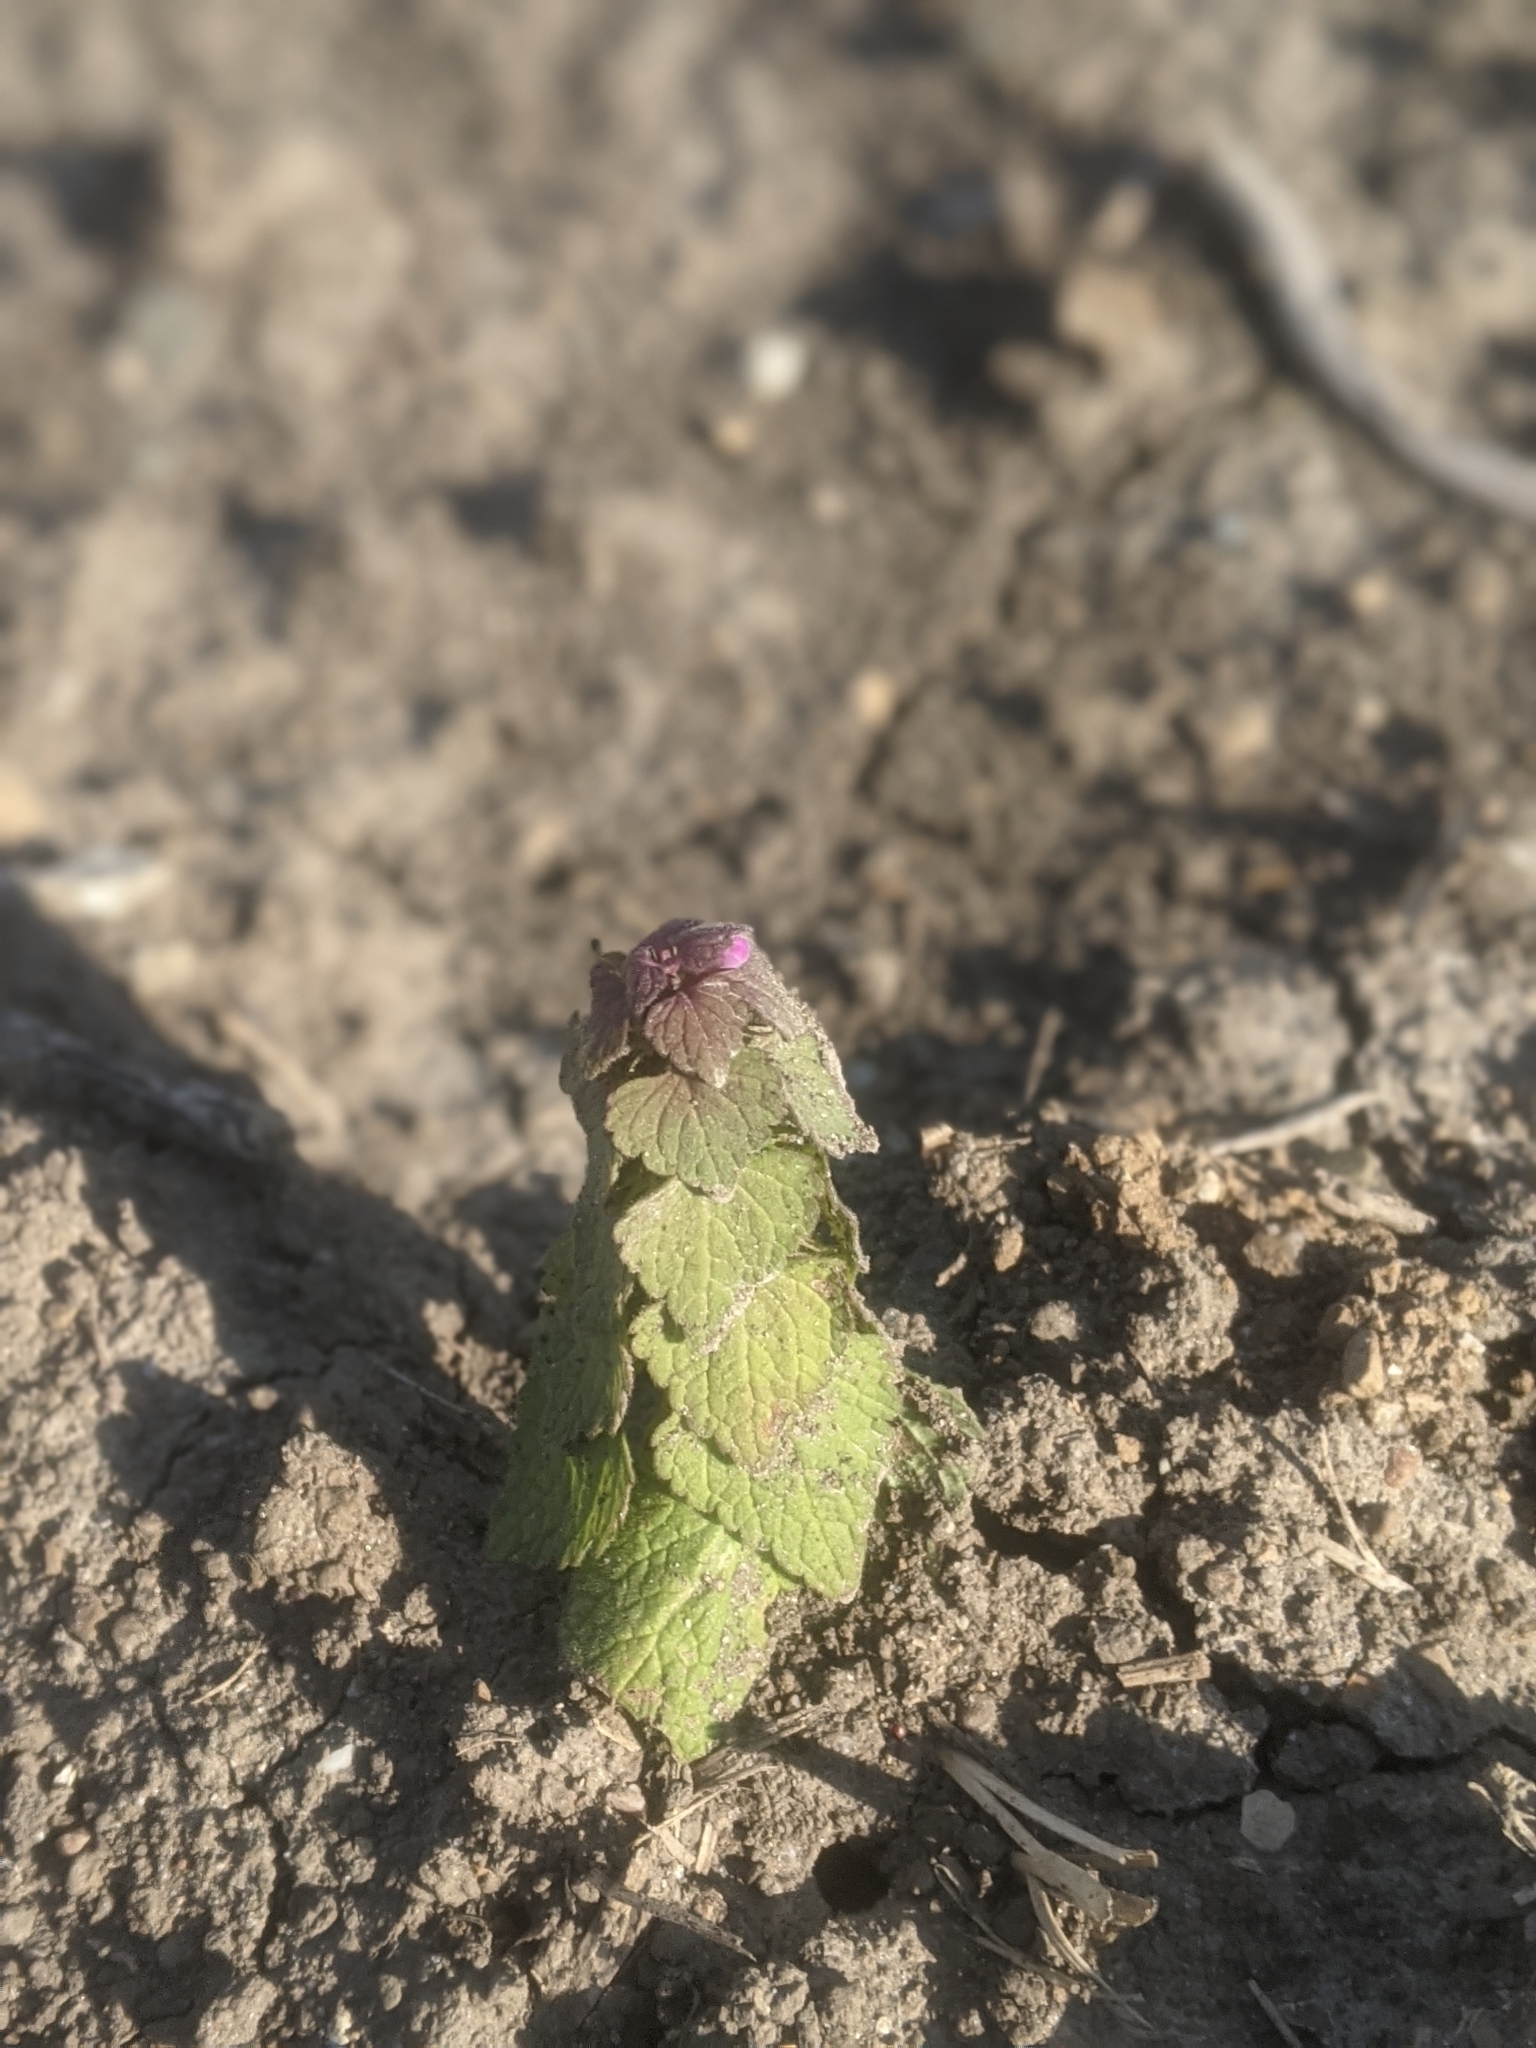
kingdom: Plantae
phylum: Tracheophyta
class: Magnoliopsida
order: Lamiales
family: Lamiaceae
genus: Lamium
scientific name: Lamium purpureum
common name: Red dead-nettle
